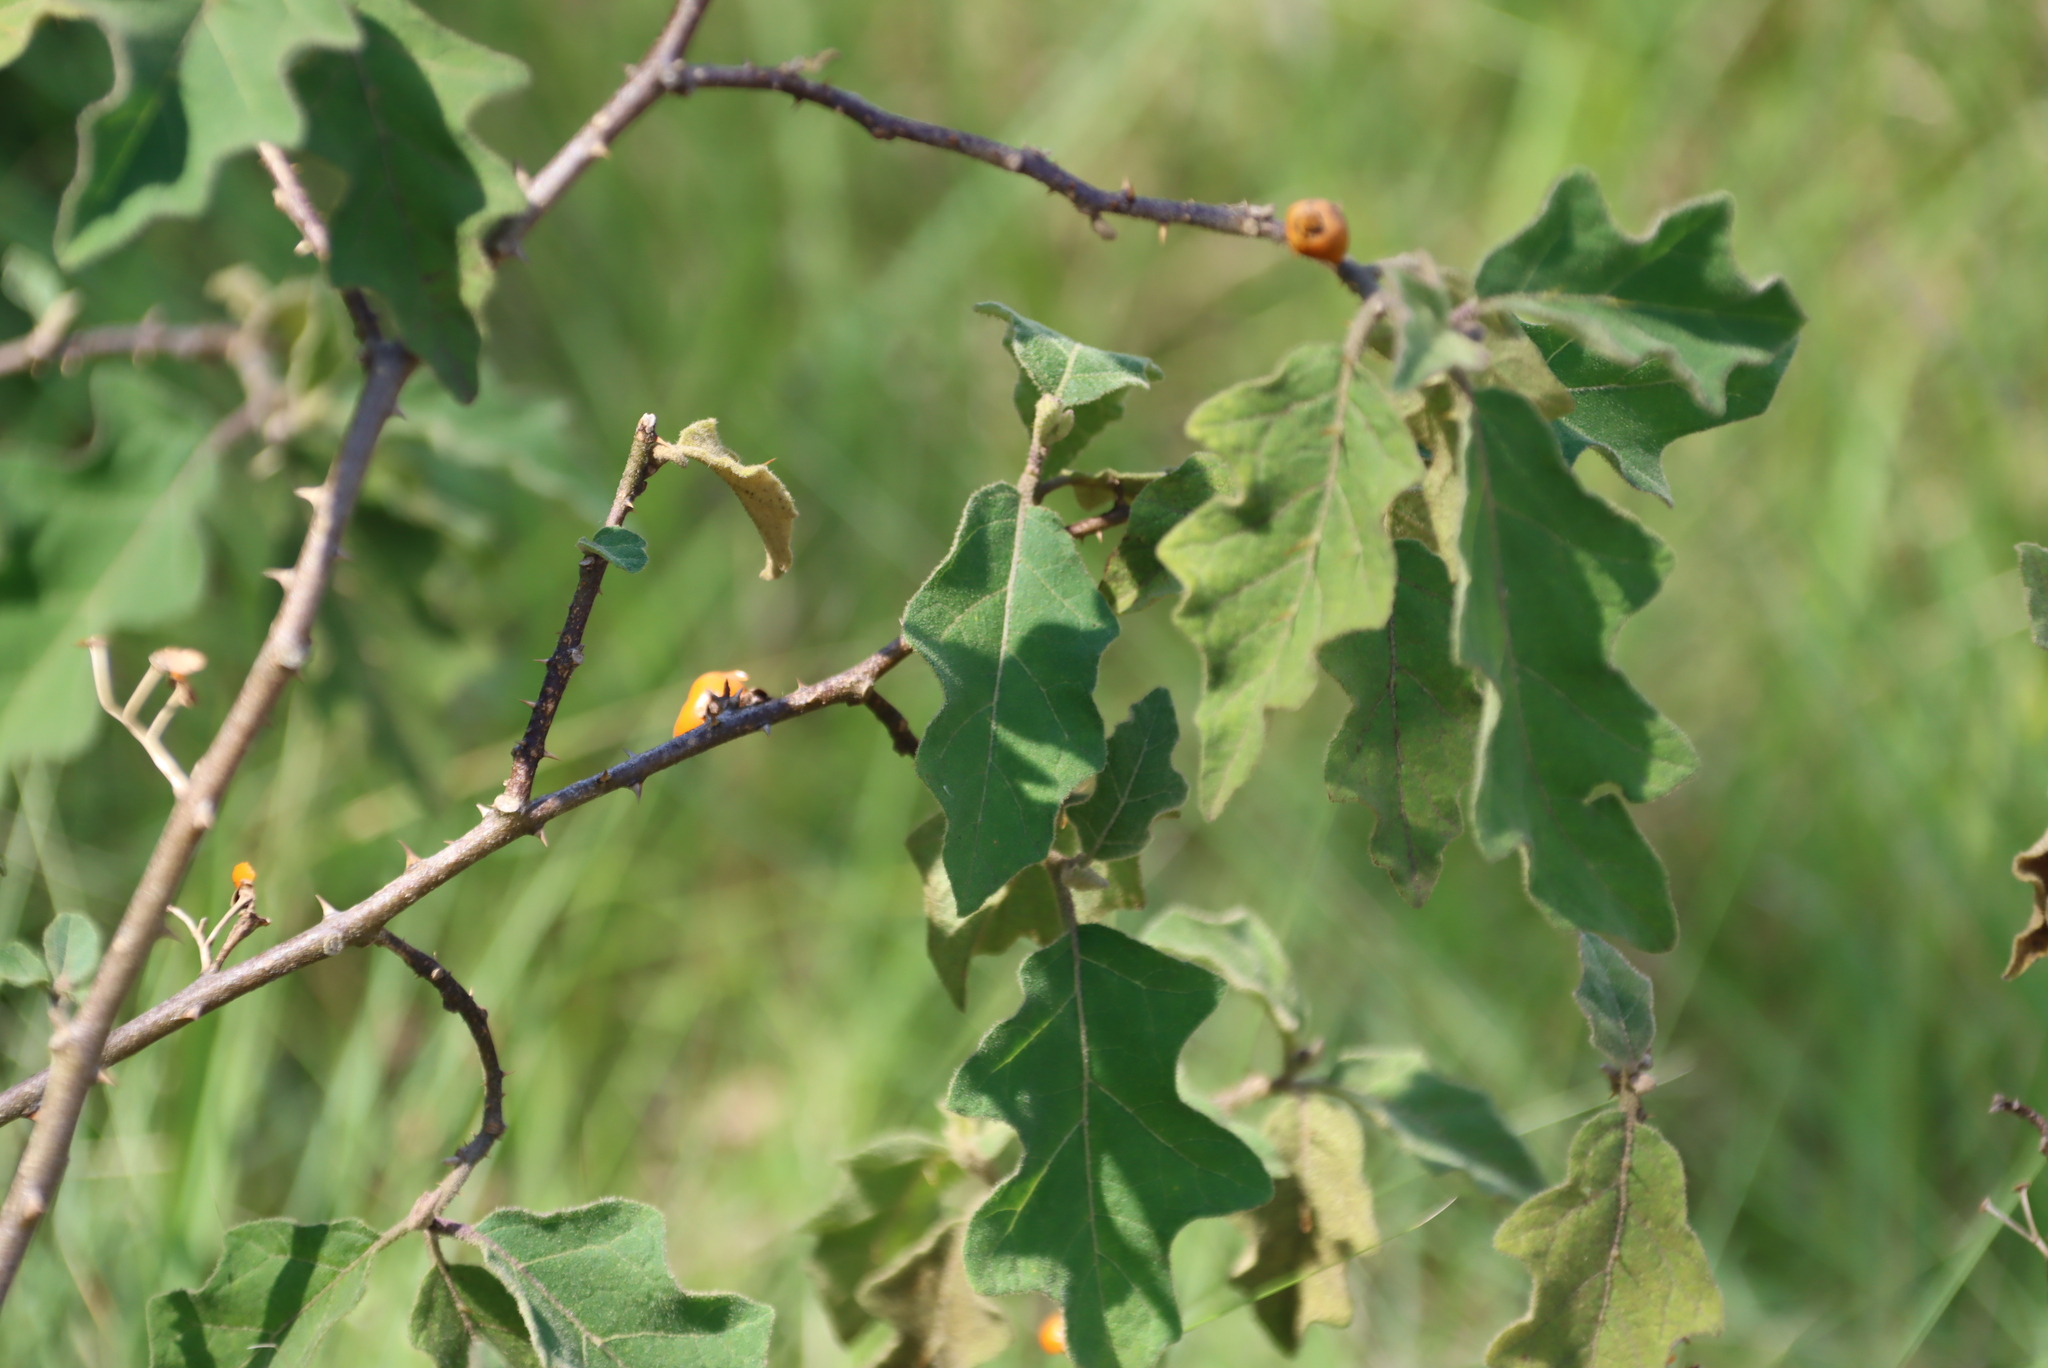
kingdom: Plantae
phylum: Tracheophyta
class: Magnoliopsida
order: Solanales
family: Solanaceae
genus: Solanum
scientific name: Solanum anguivi
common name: Forest bitterberry
